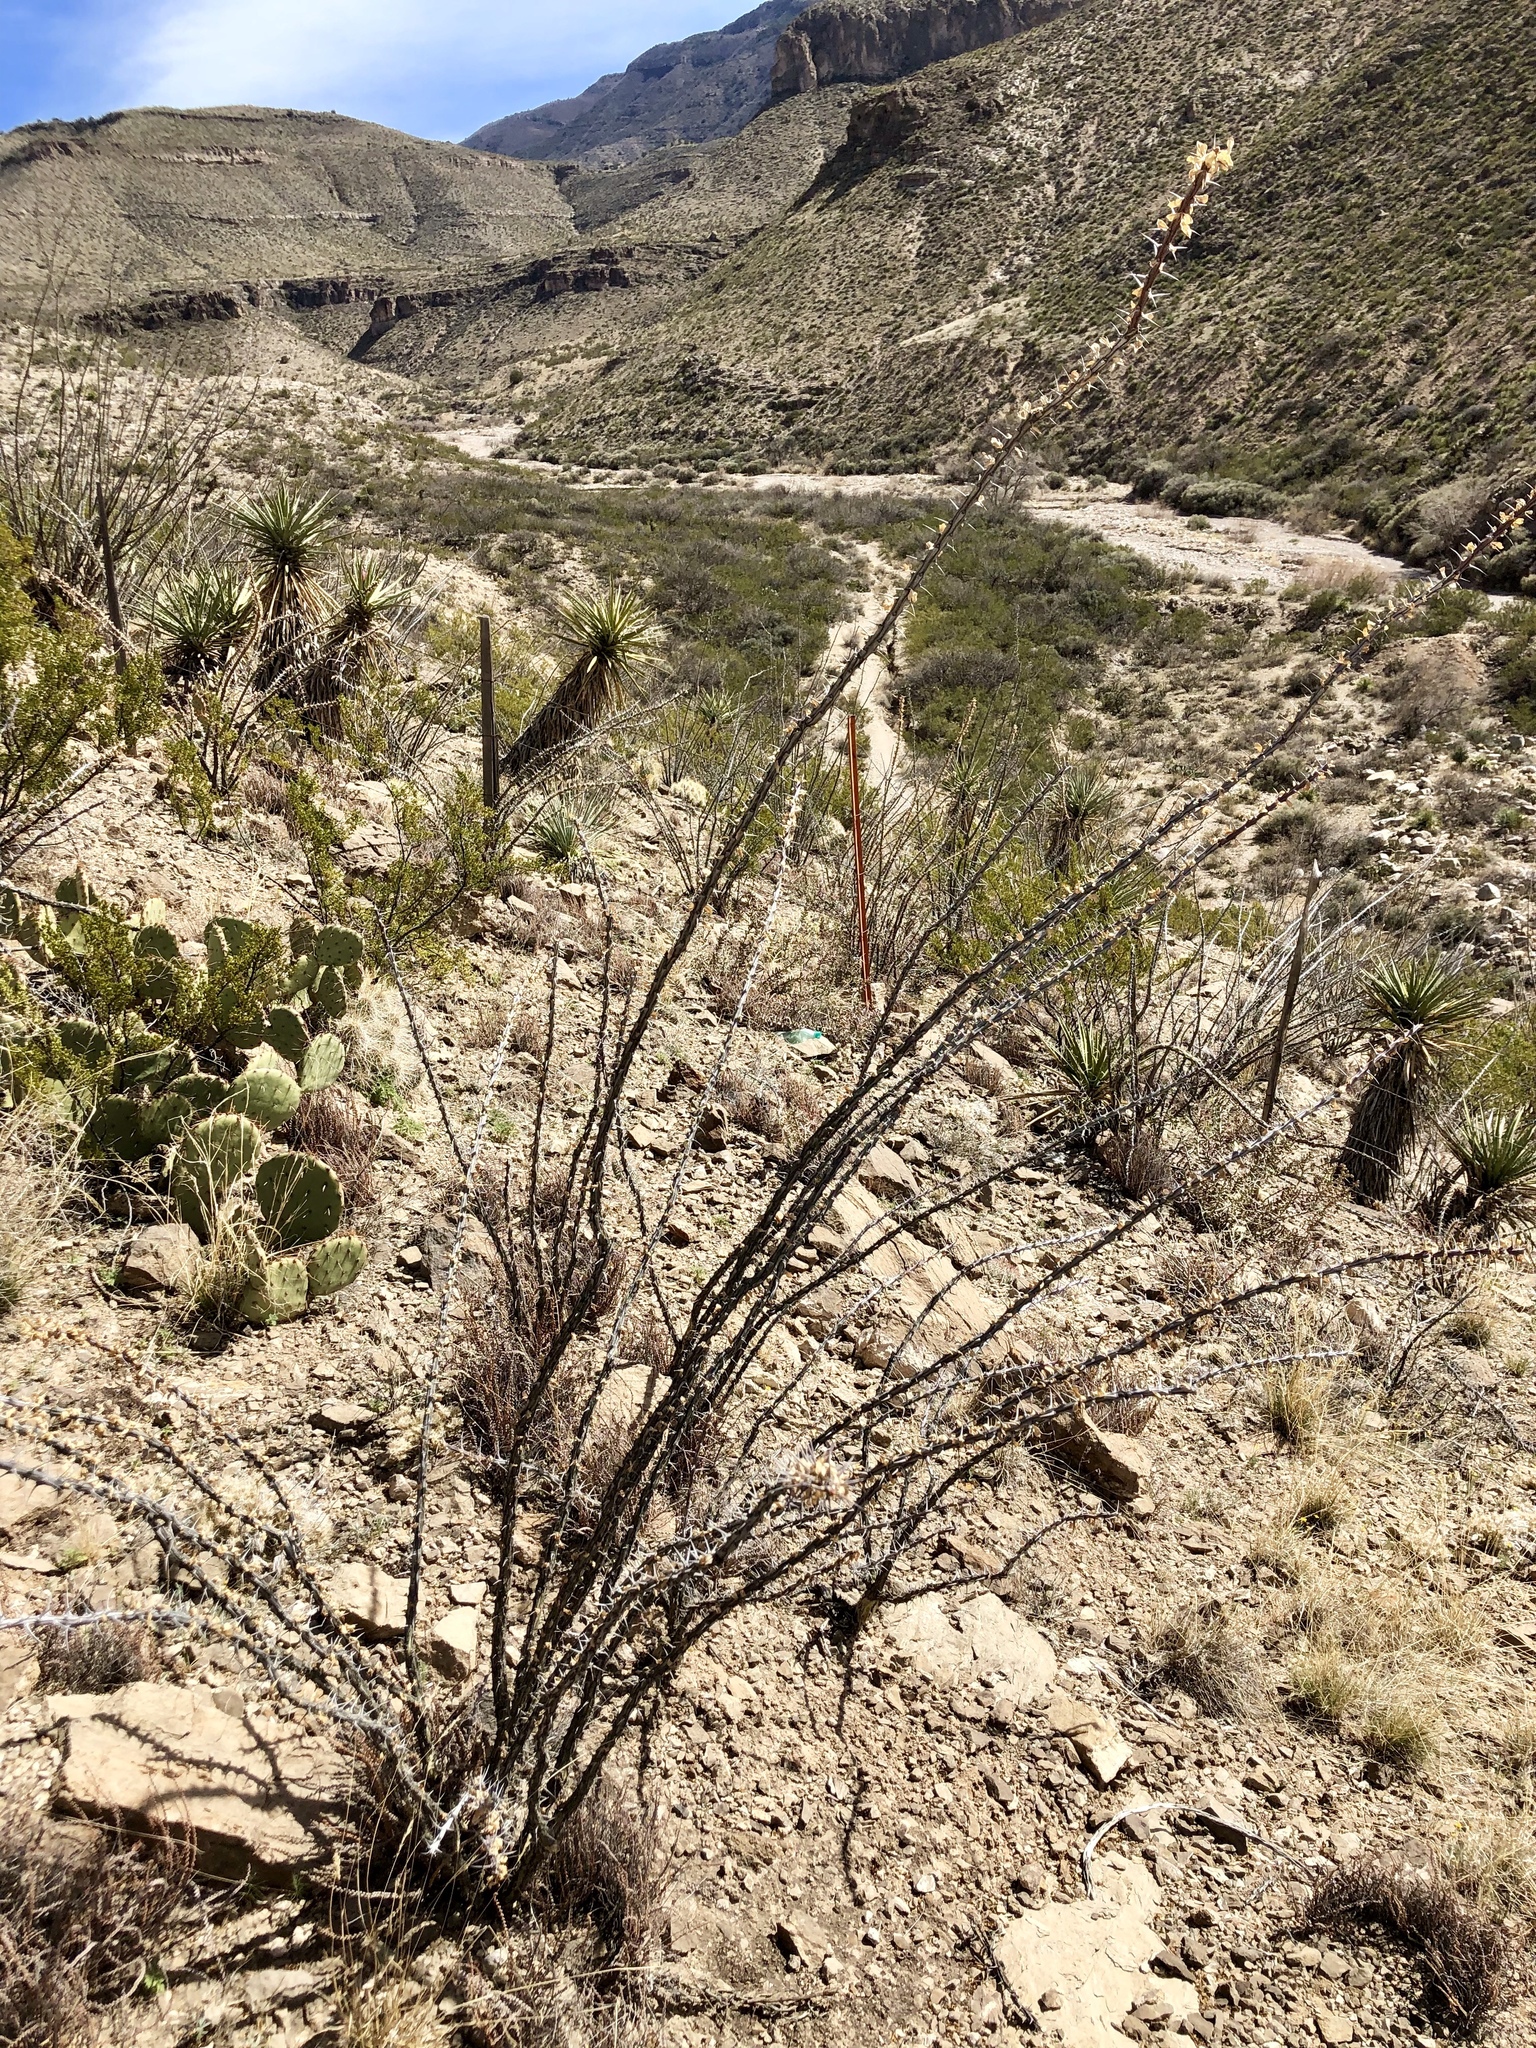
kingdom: Plantae
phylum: Tracheophyta
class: Magnoliopsida
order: Ericales
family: Fouquieriaceae
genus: Fouquieria
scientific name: Fouquieria splendens
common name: Vine-cactus
